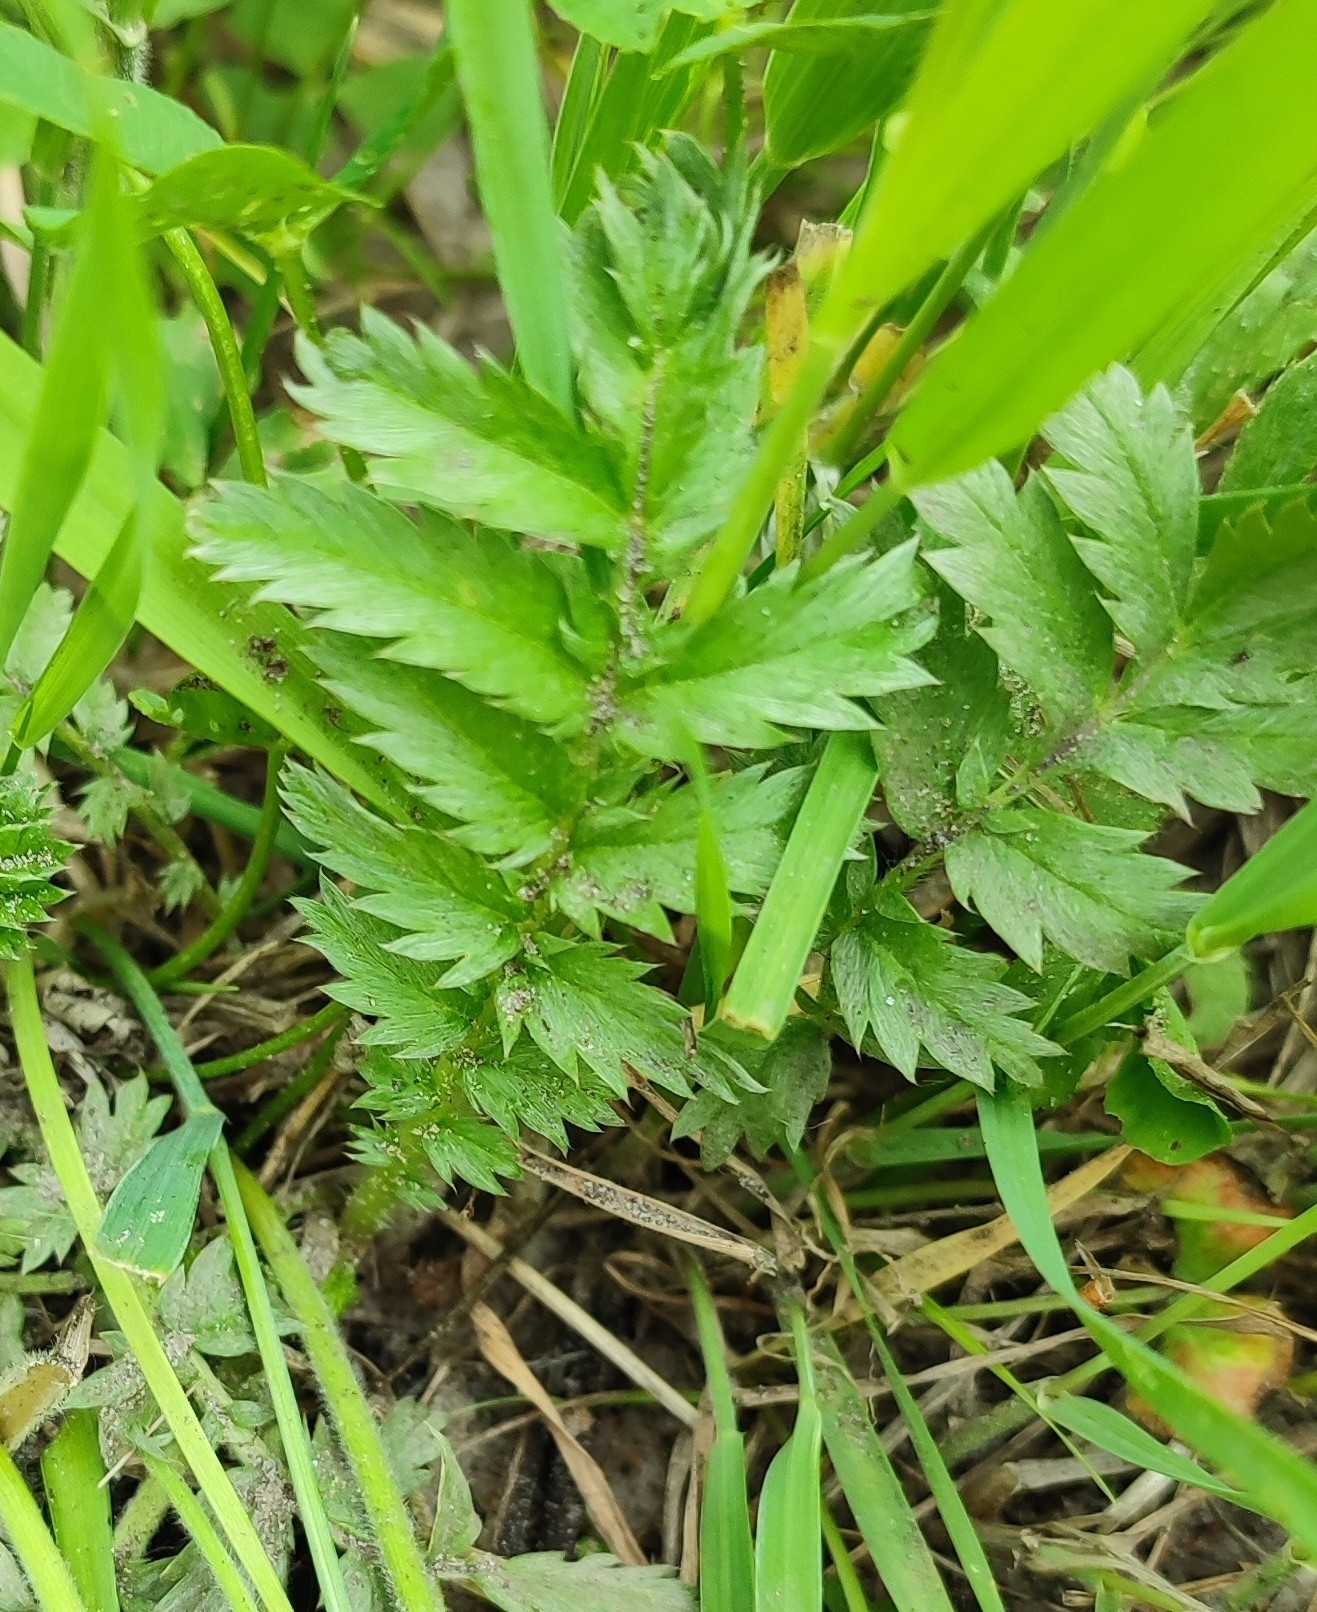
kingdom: Plantae
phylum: Tracheophyta
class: Magnoliopsida
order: Rosales
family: Rosaceae
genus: Argentina
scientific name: Argentina anserina
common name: Common silverweed
